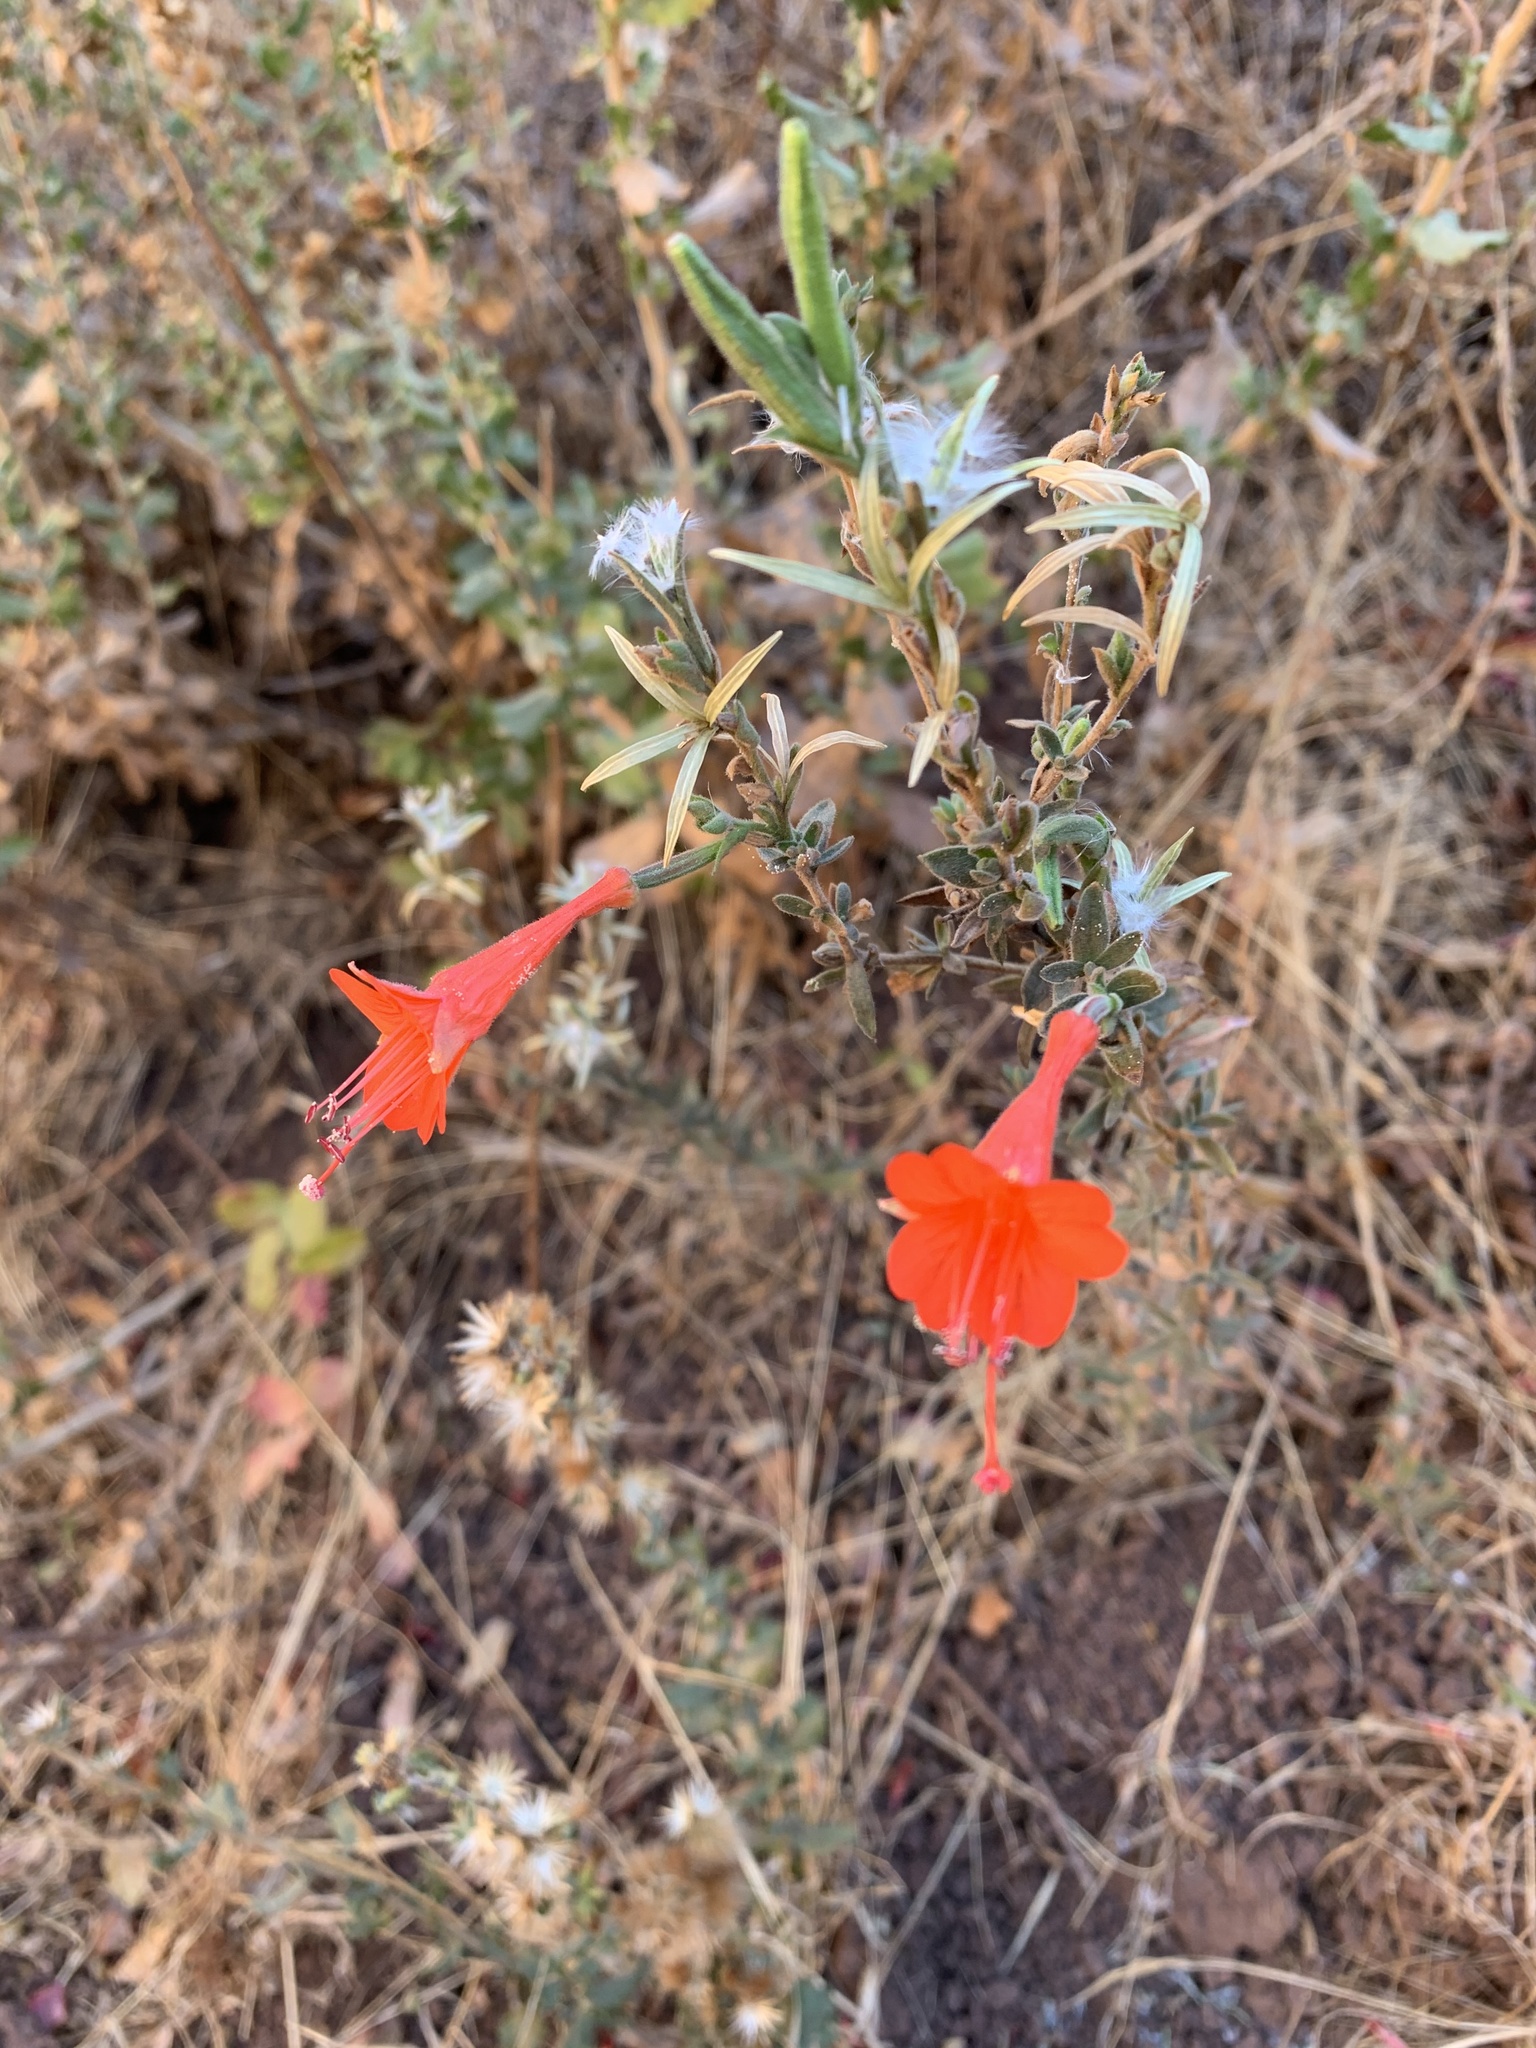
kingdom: Plantae
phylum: Tracheophyta
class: Magnoliopsida
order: Myrtales
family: Onagraceae
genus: Epilobium
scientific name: Epilobium canum
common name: California-fuchsia
